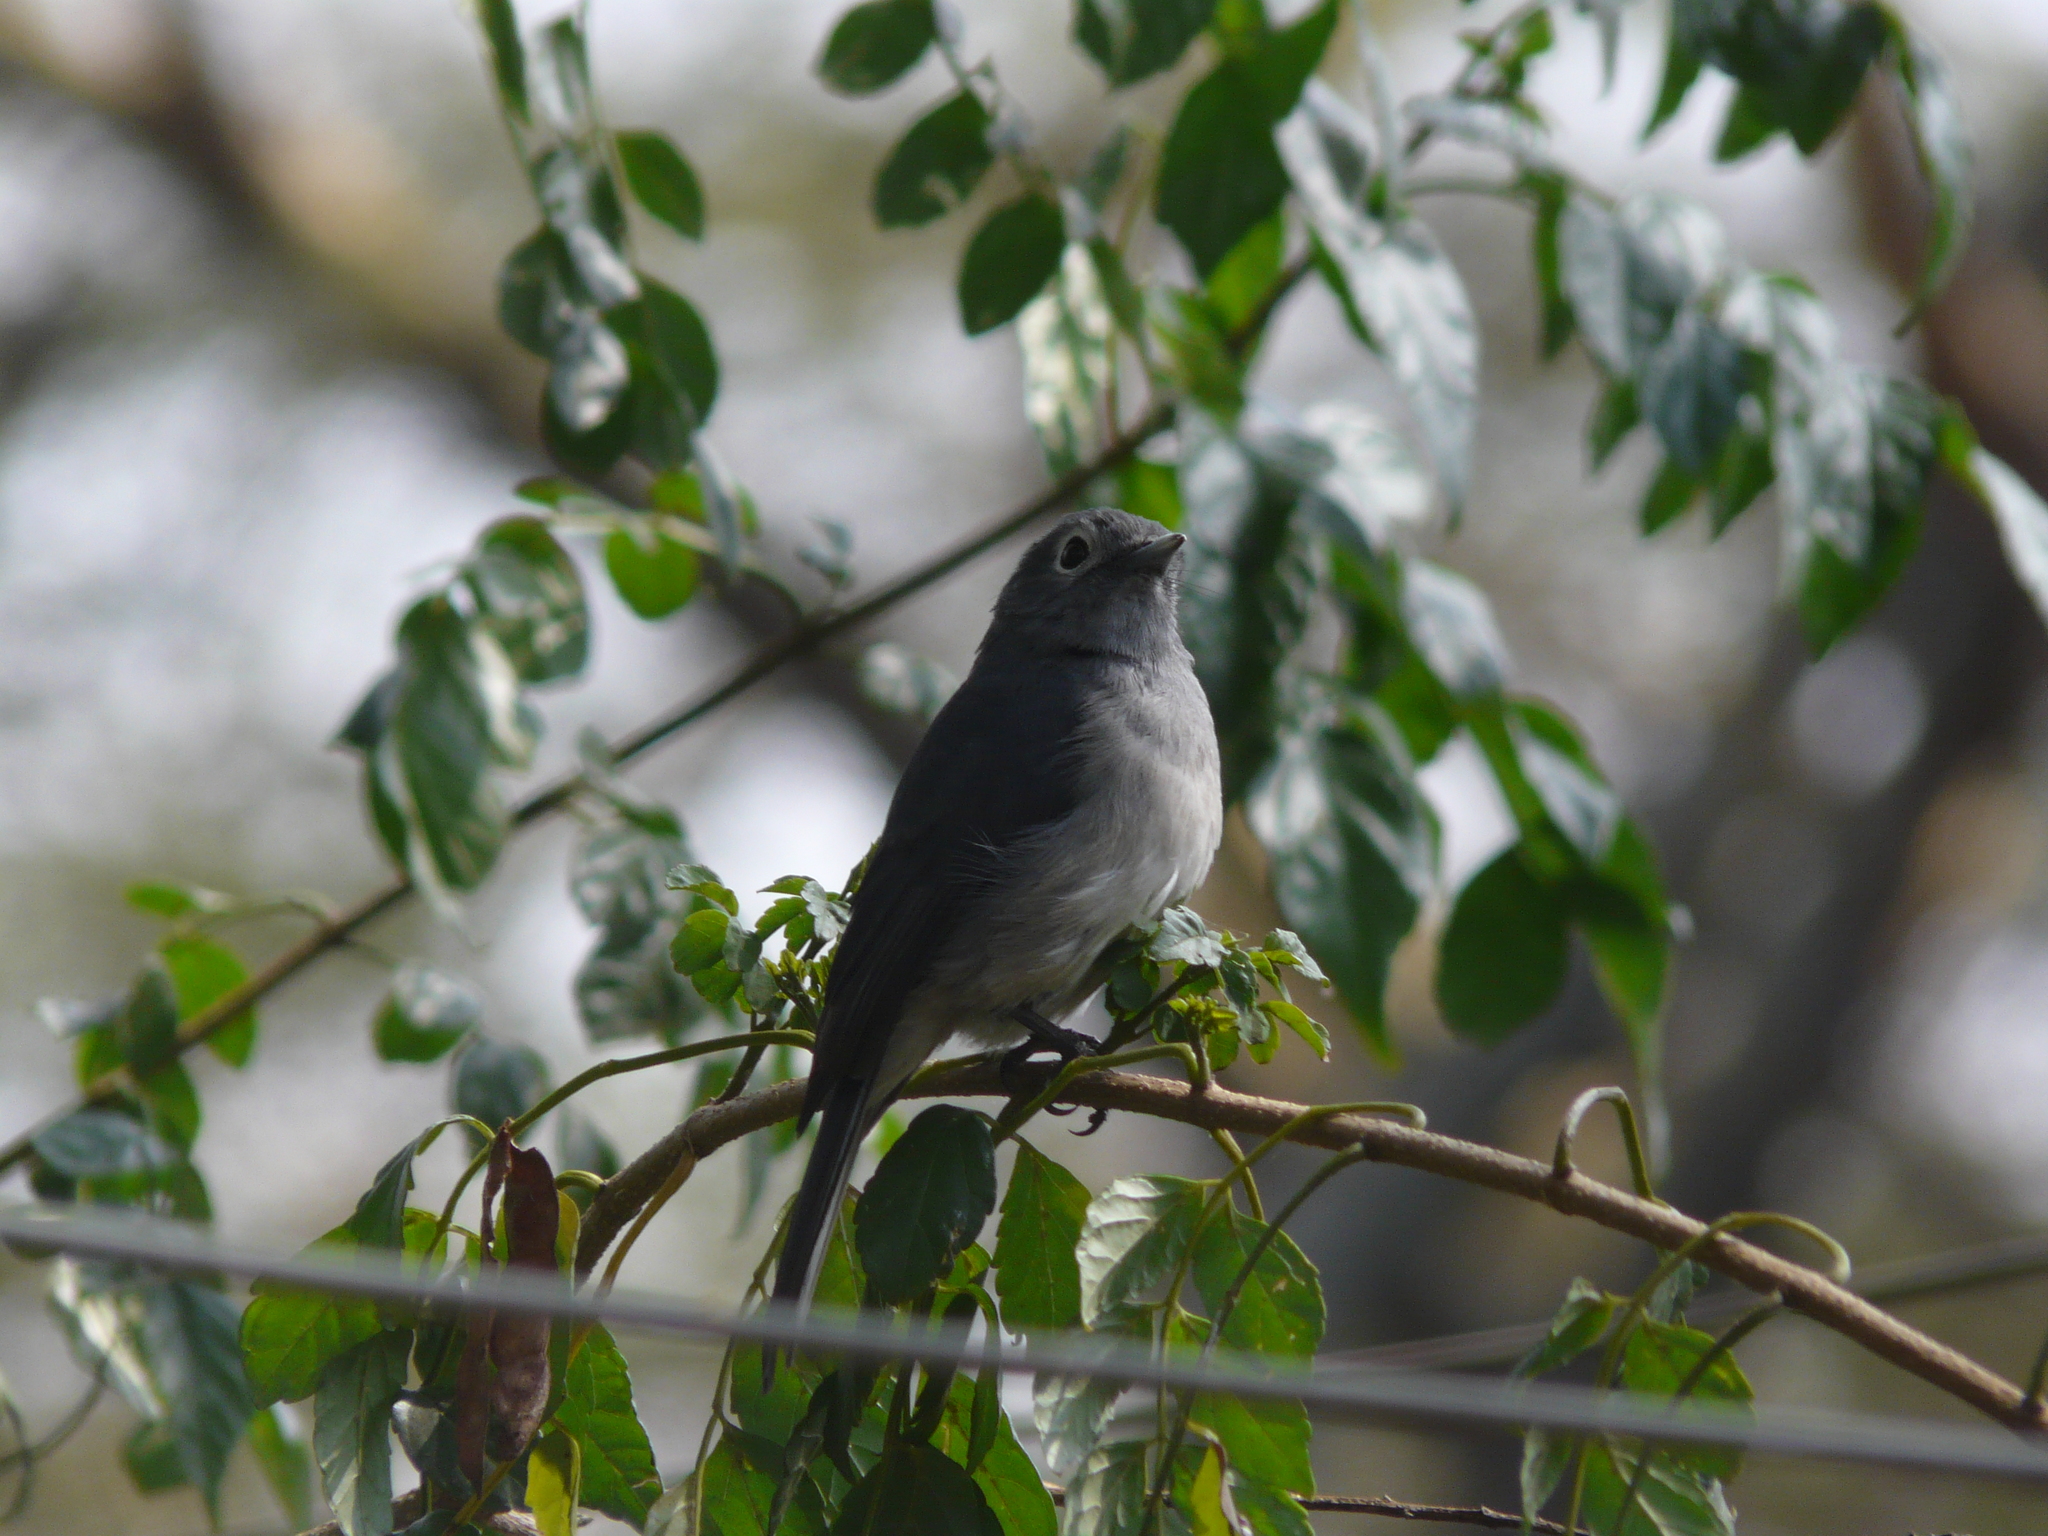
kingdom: Animalia
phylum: Chordata
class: Aves
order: Passeriformes
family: Muscicapidae
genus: Dioptrornis
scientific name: Dioptrornis fischeri
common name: White-eyed slaty flycatcher
